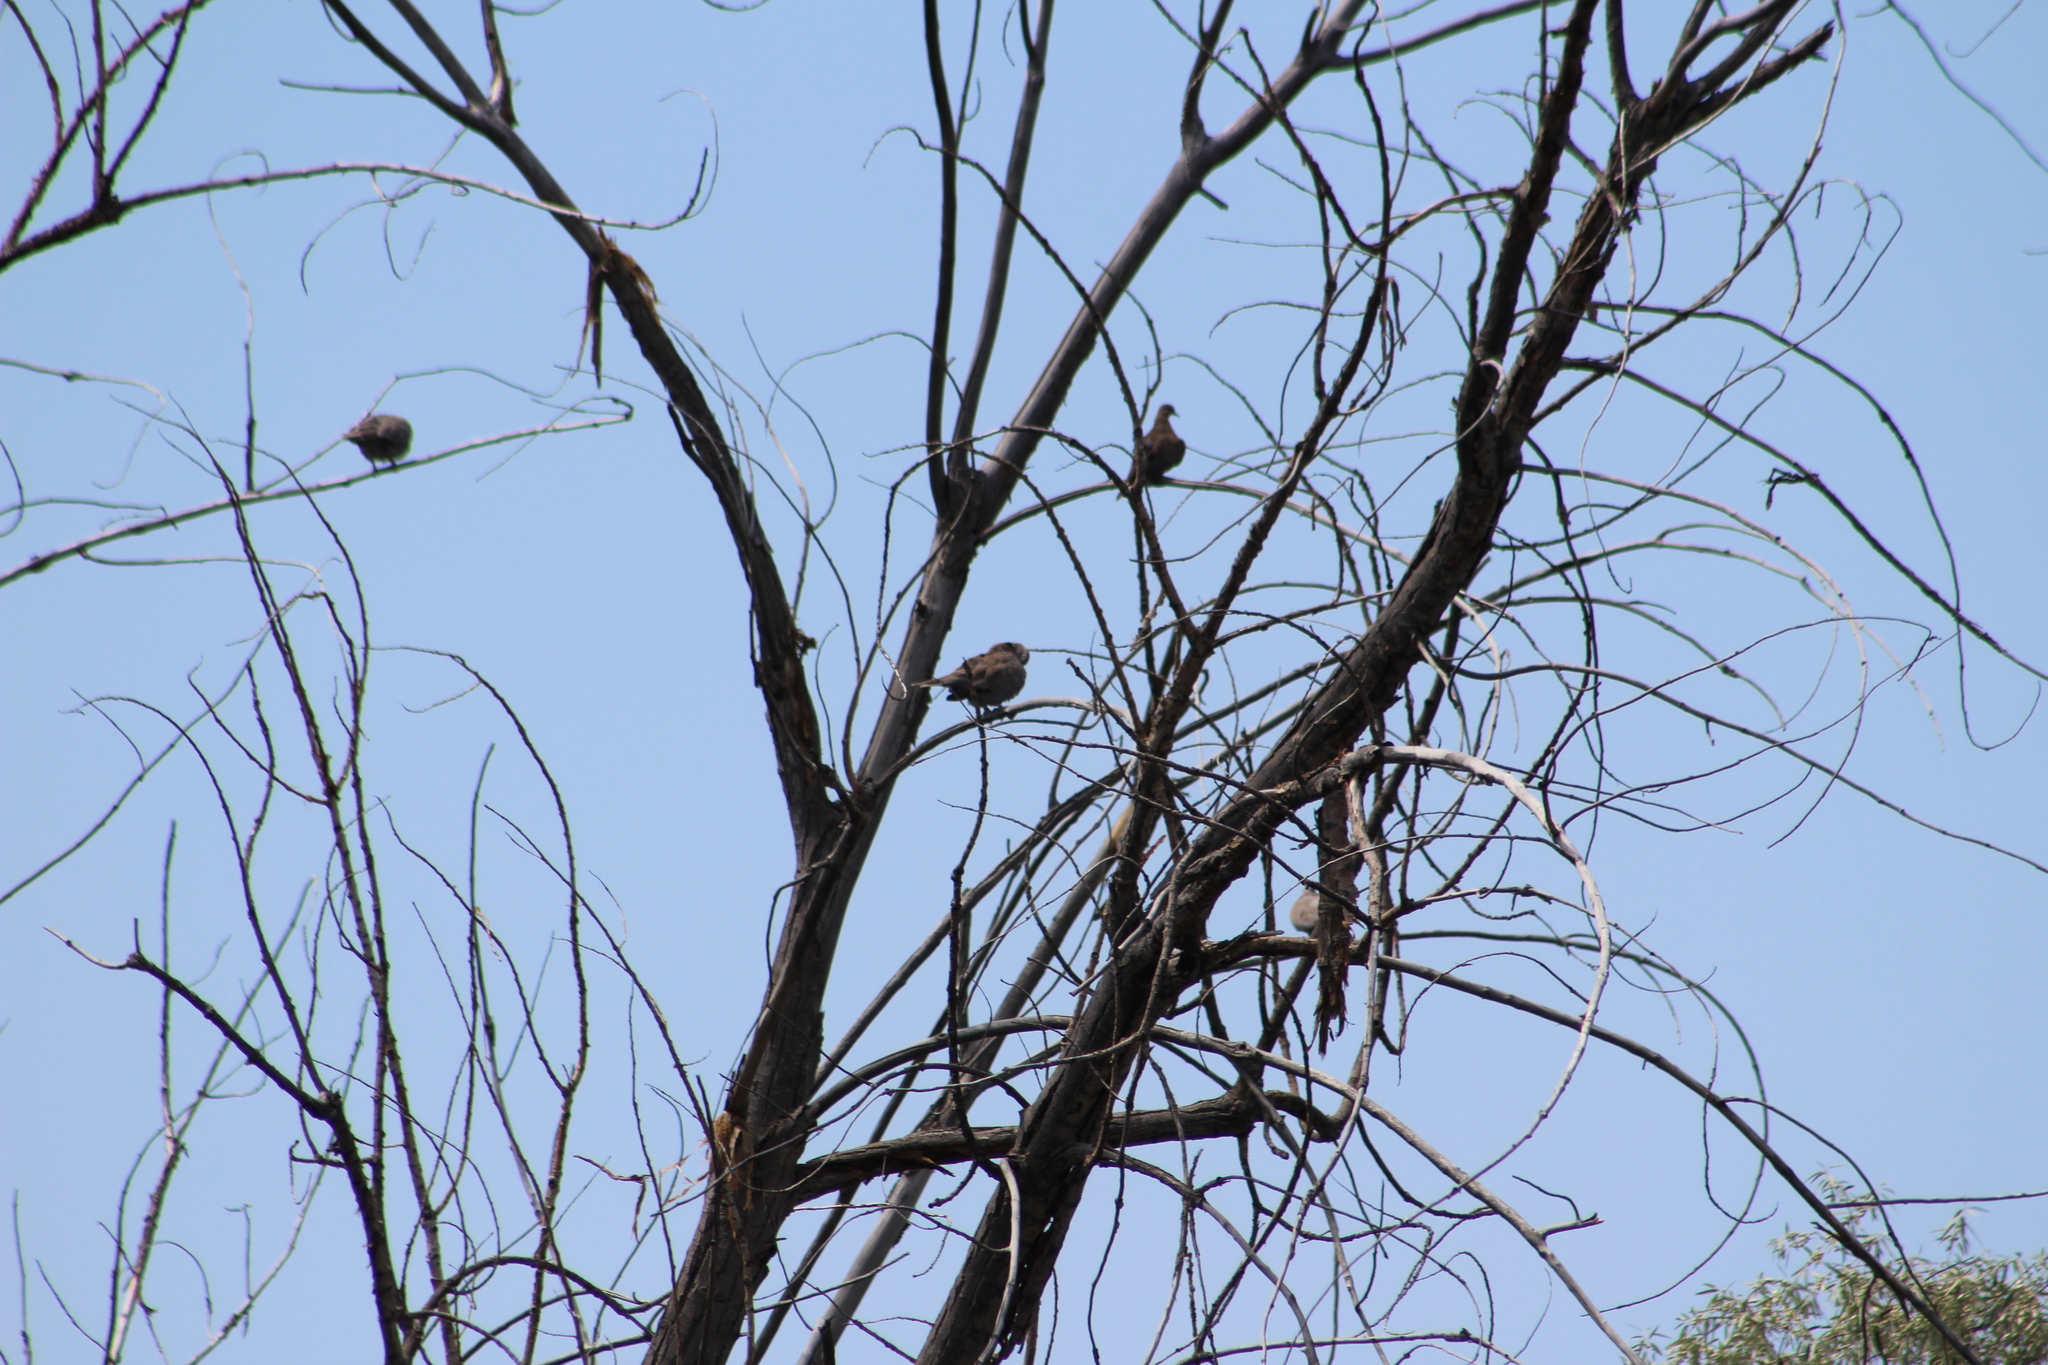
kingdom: Animalia
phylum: Chordata
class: Aves
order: Columbiformes
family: Columbidae
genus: Streptopelia
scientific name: Streptopelia decaocto
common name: Eurasian collared dove
